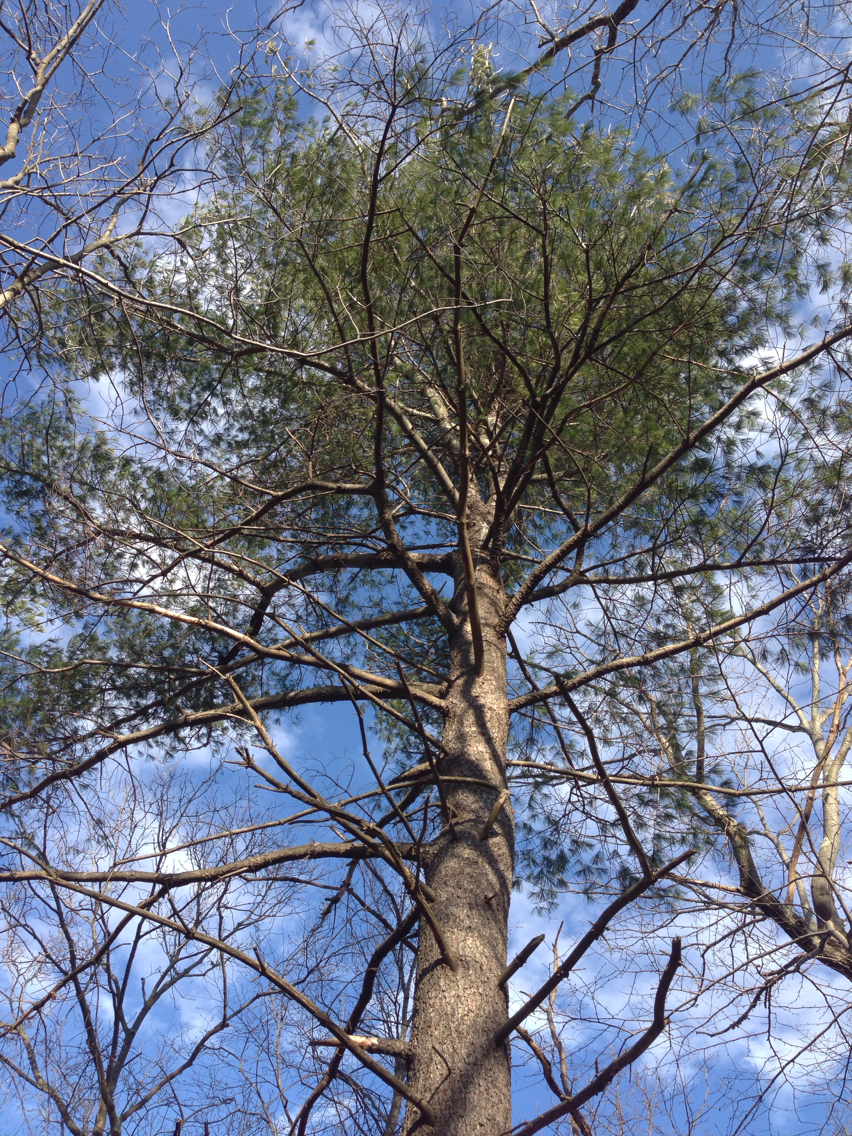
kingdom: Plantae
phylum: Tracheophyta
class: Pinopsida
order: Pinales
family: Pinaceae
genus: Pinus
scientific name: Pinus strobus
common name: Weymouth pine
